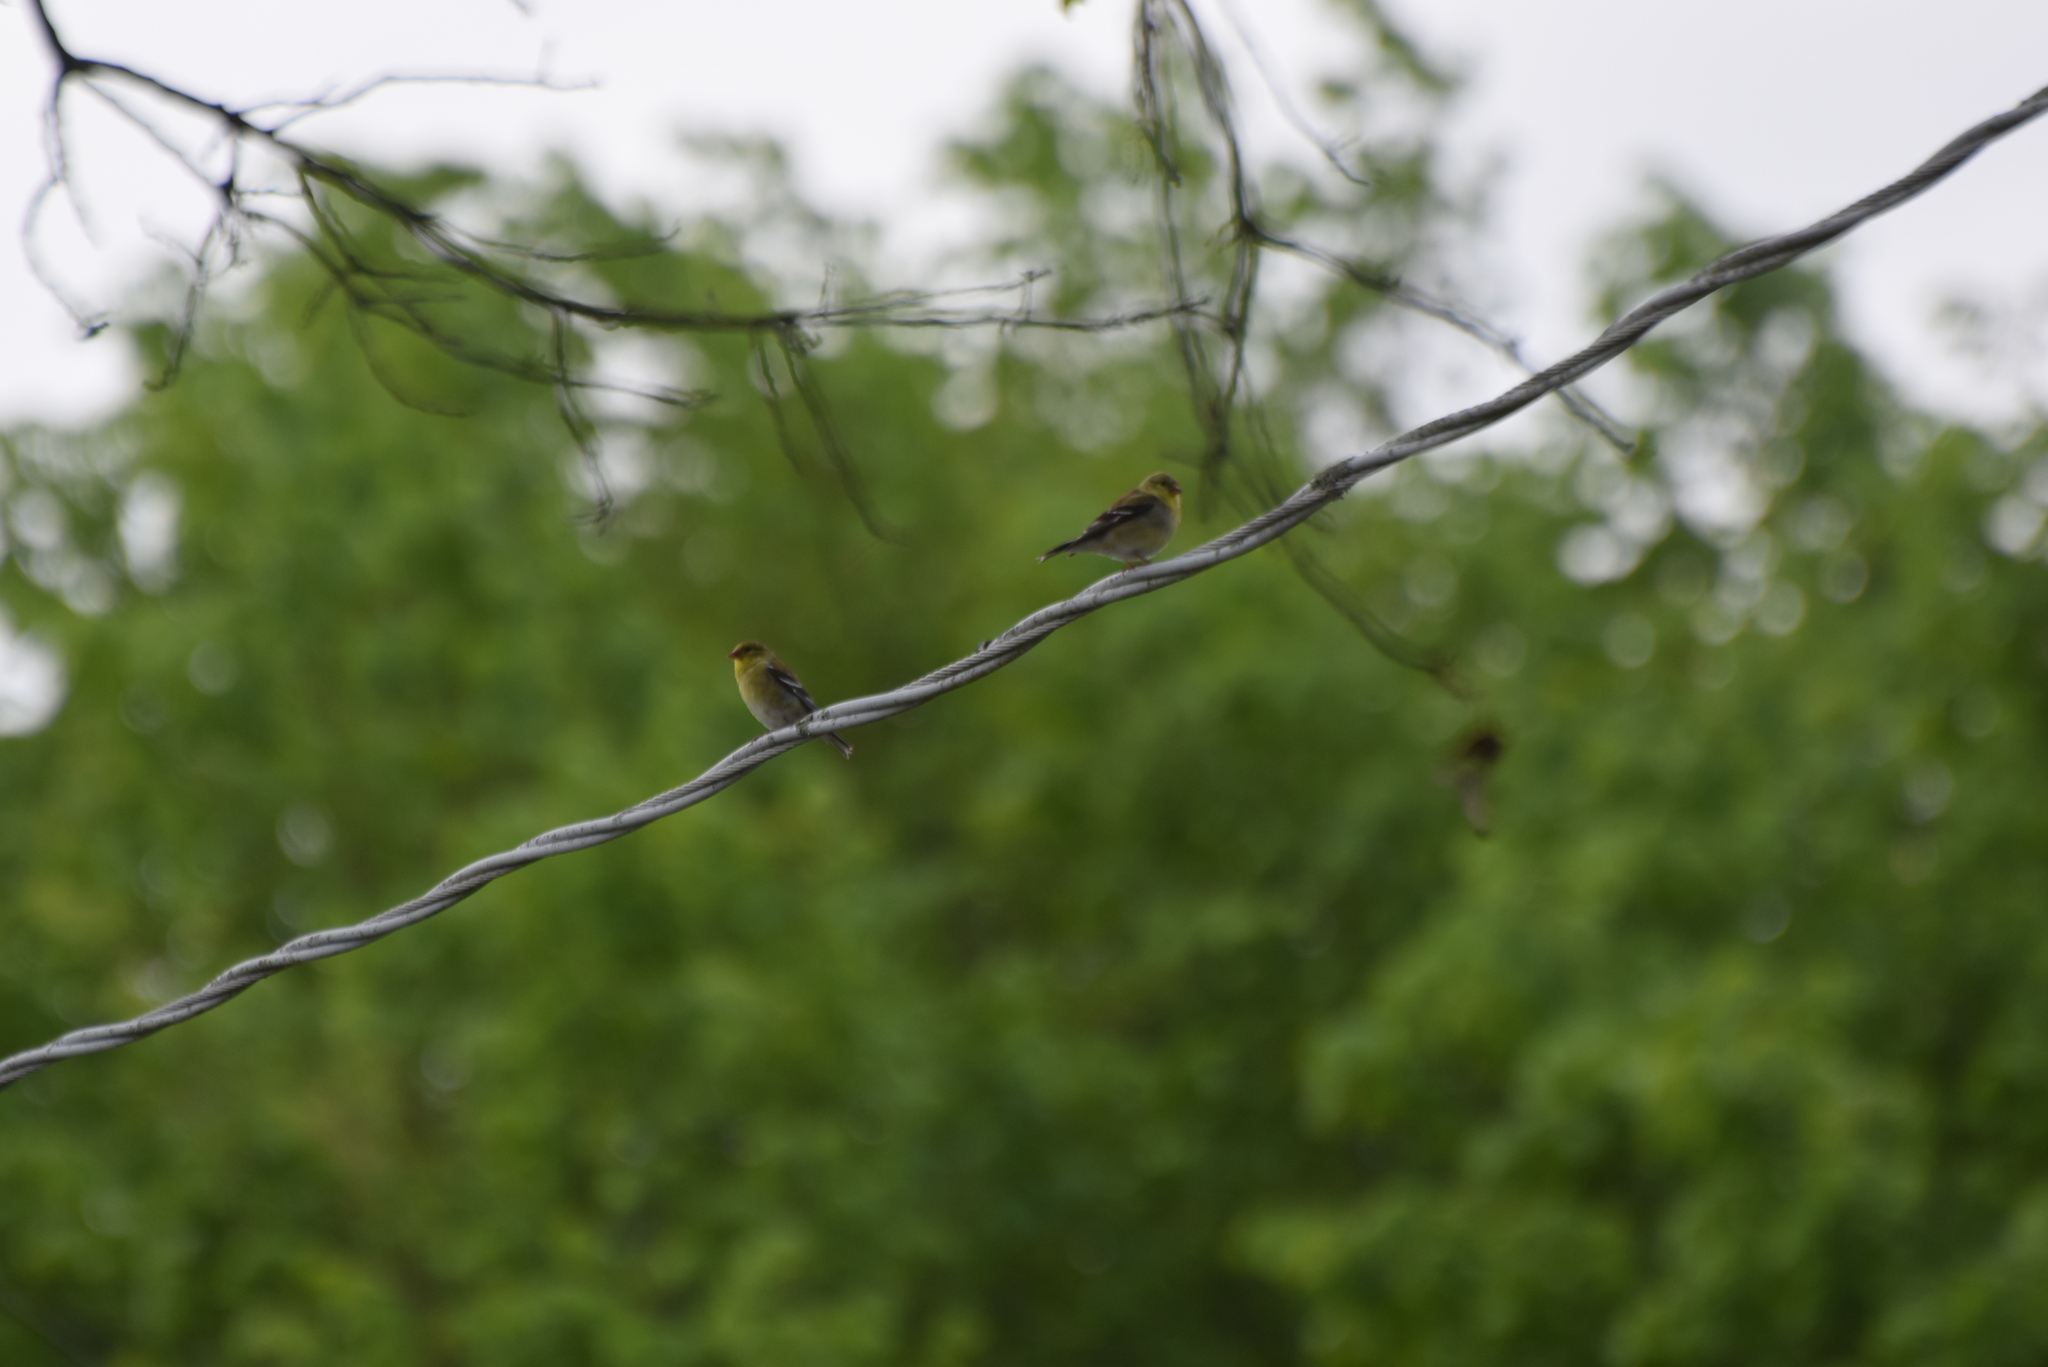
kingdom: Animalia
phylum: Chordata
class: Aves
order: Passeriformes
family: Fringillidae
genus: Spinus
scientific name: Spinus tristis
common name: American goldfinch
